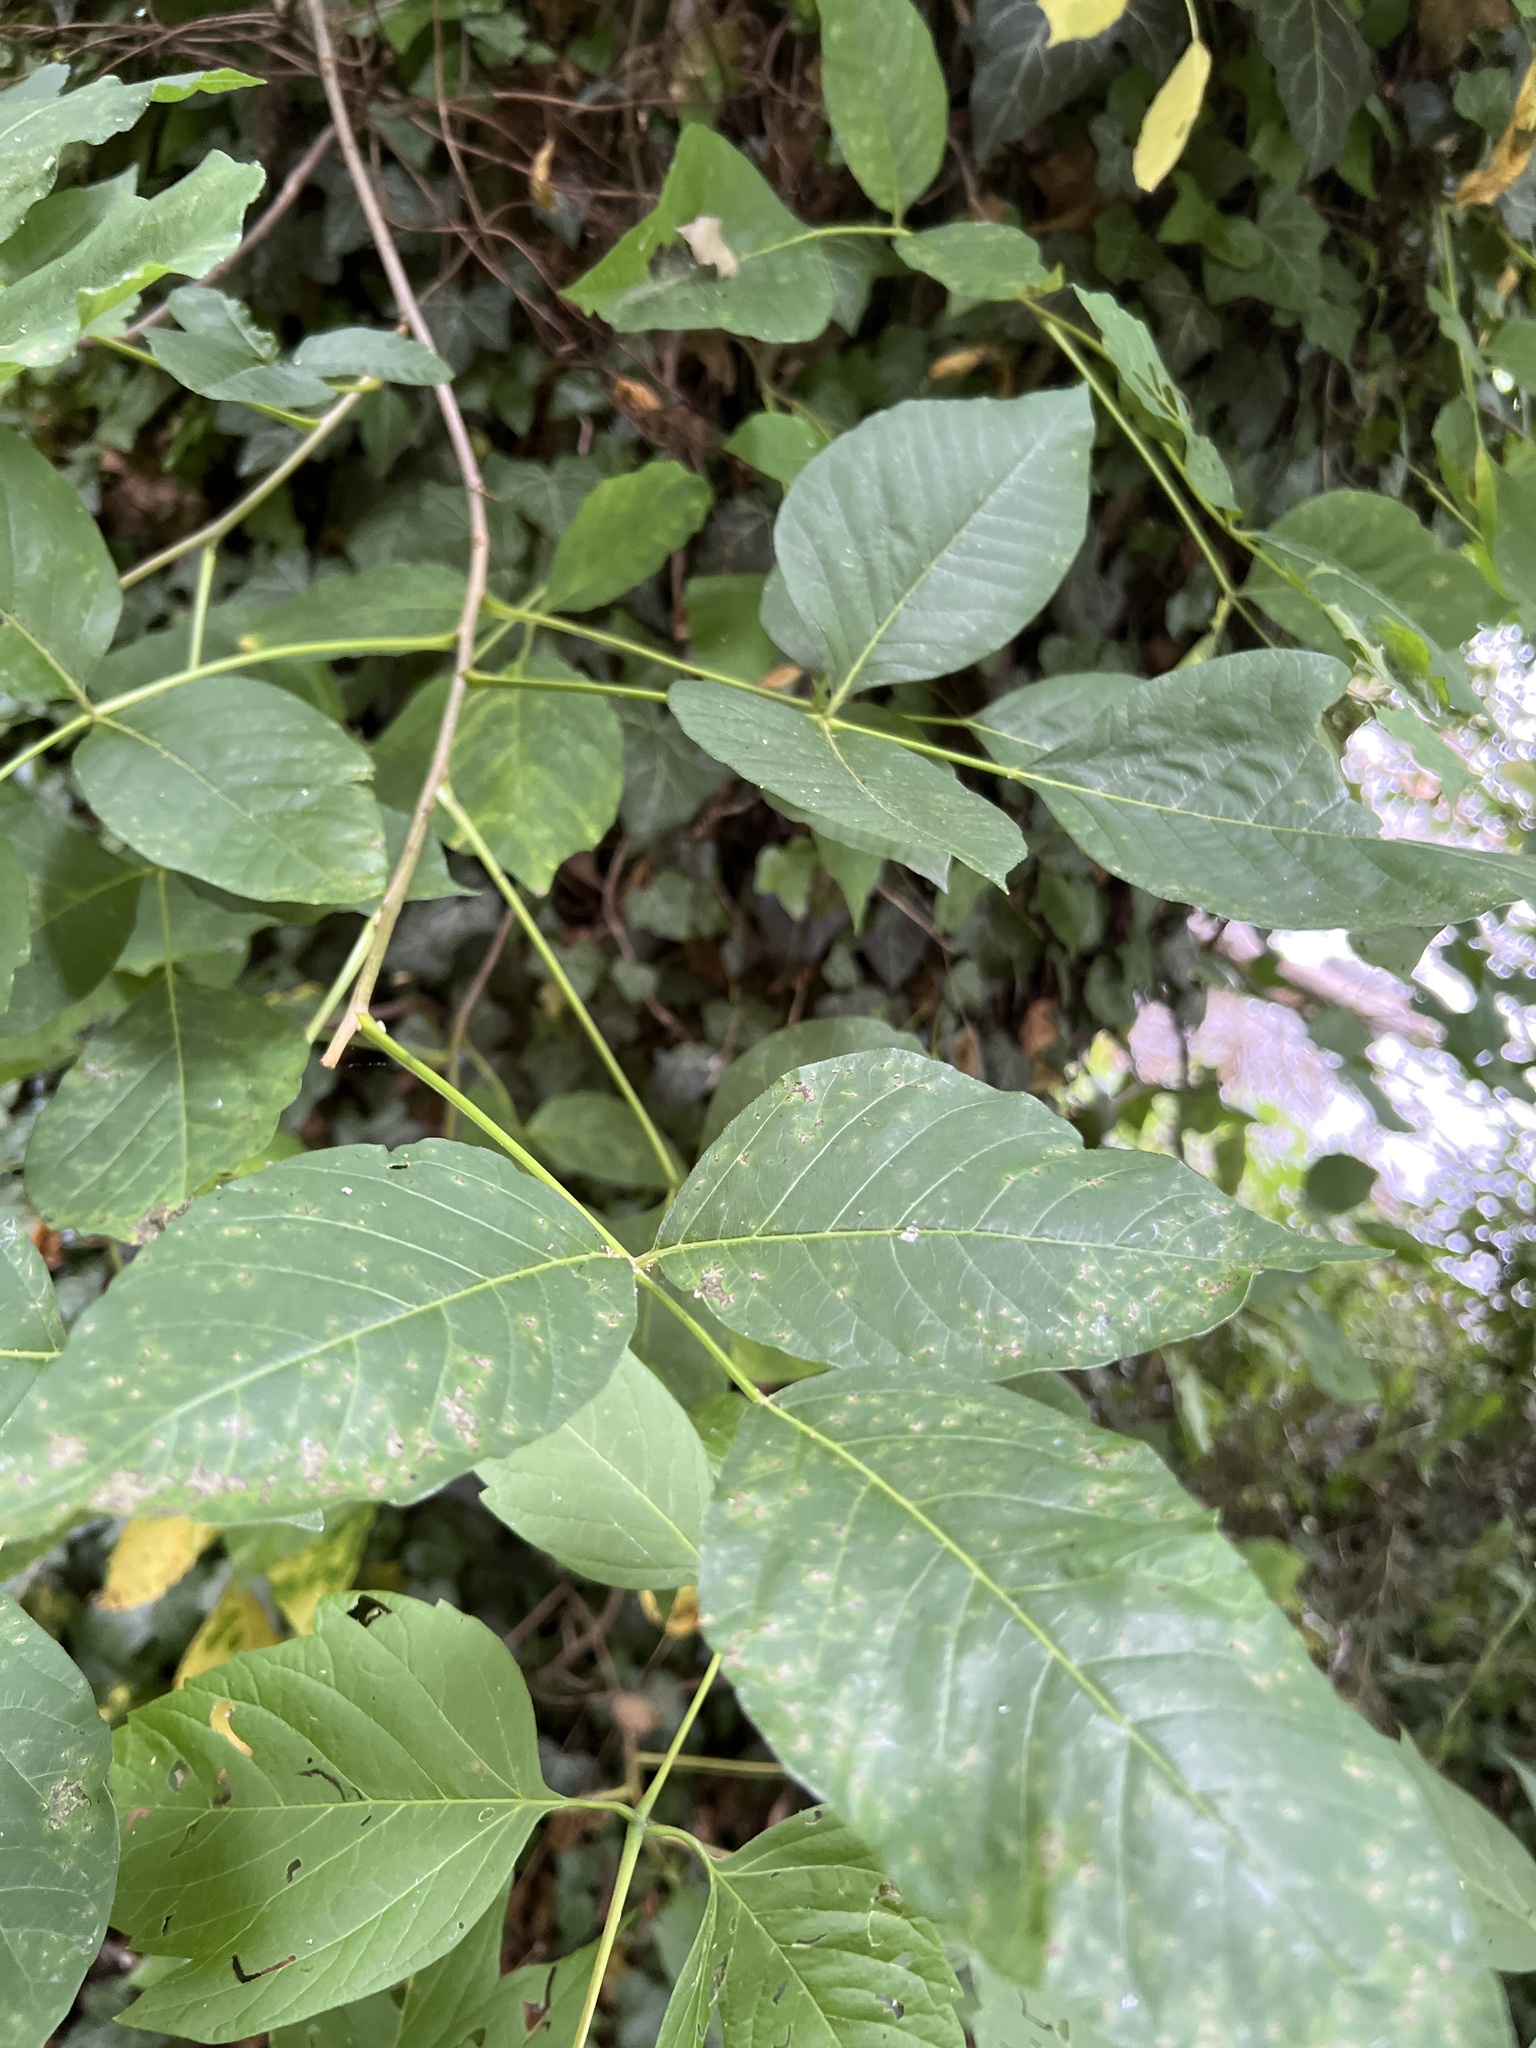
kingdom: Plantae
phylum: Tracheophyta
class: Magnoliopsida
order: Sapindales
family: Anacardiaceae
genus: Toxicodendron
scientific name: Toxicodendron radicans
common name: Poison ivy
